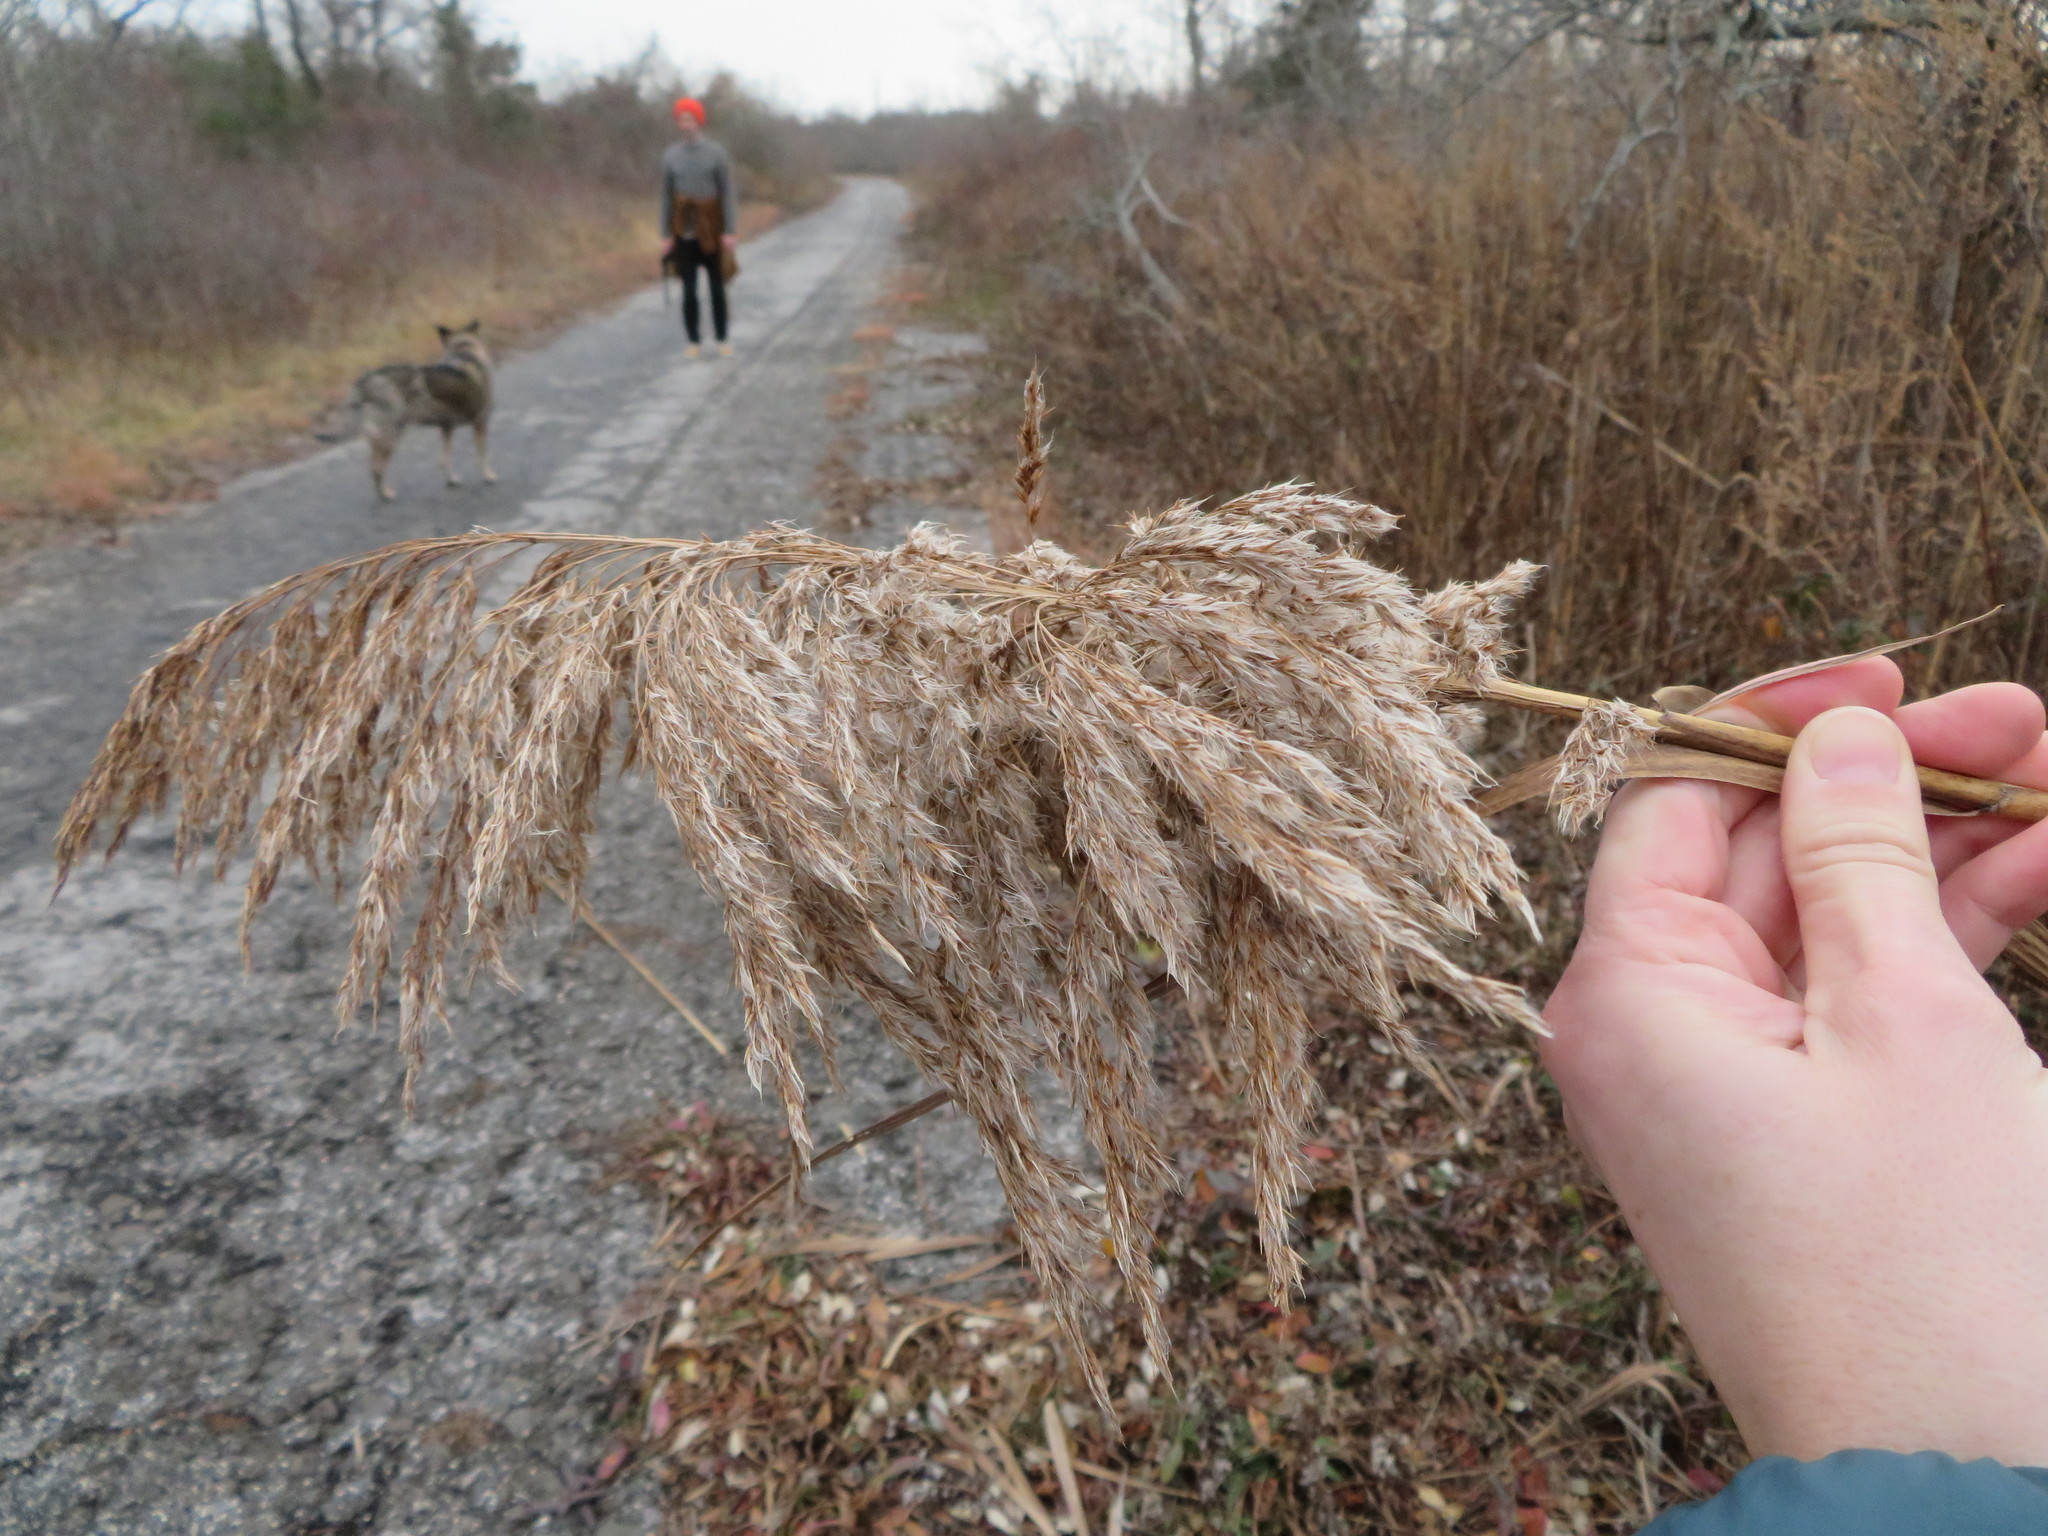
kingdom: Plantae
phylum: Tracheophyta
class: Liliopsida
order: Poales
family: Poaceae
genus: Phragmites
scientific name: Phragmites australis
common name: Common reed
